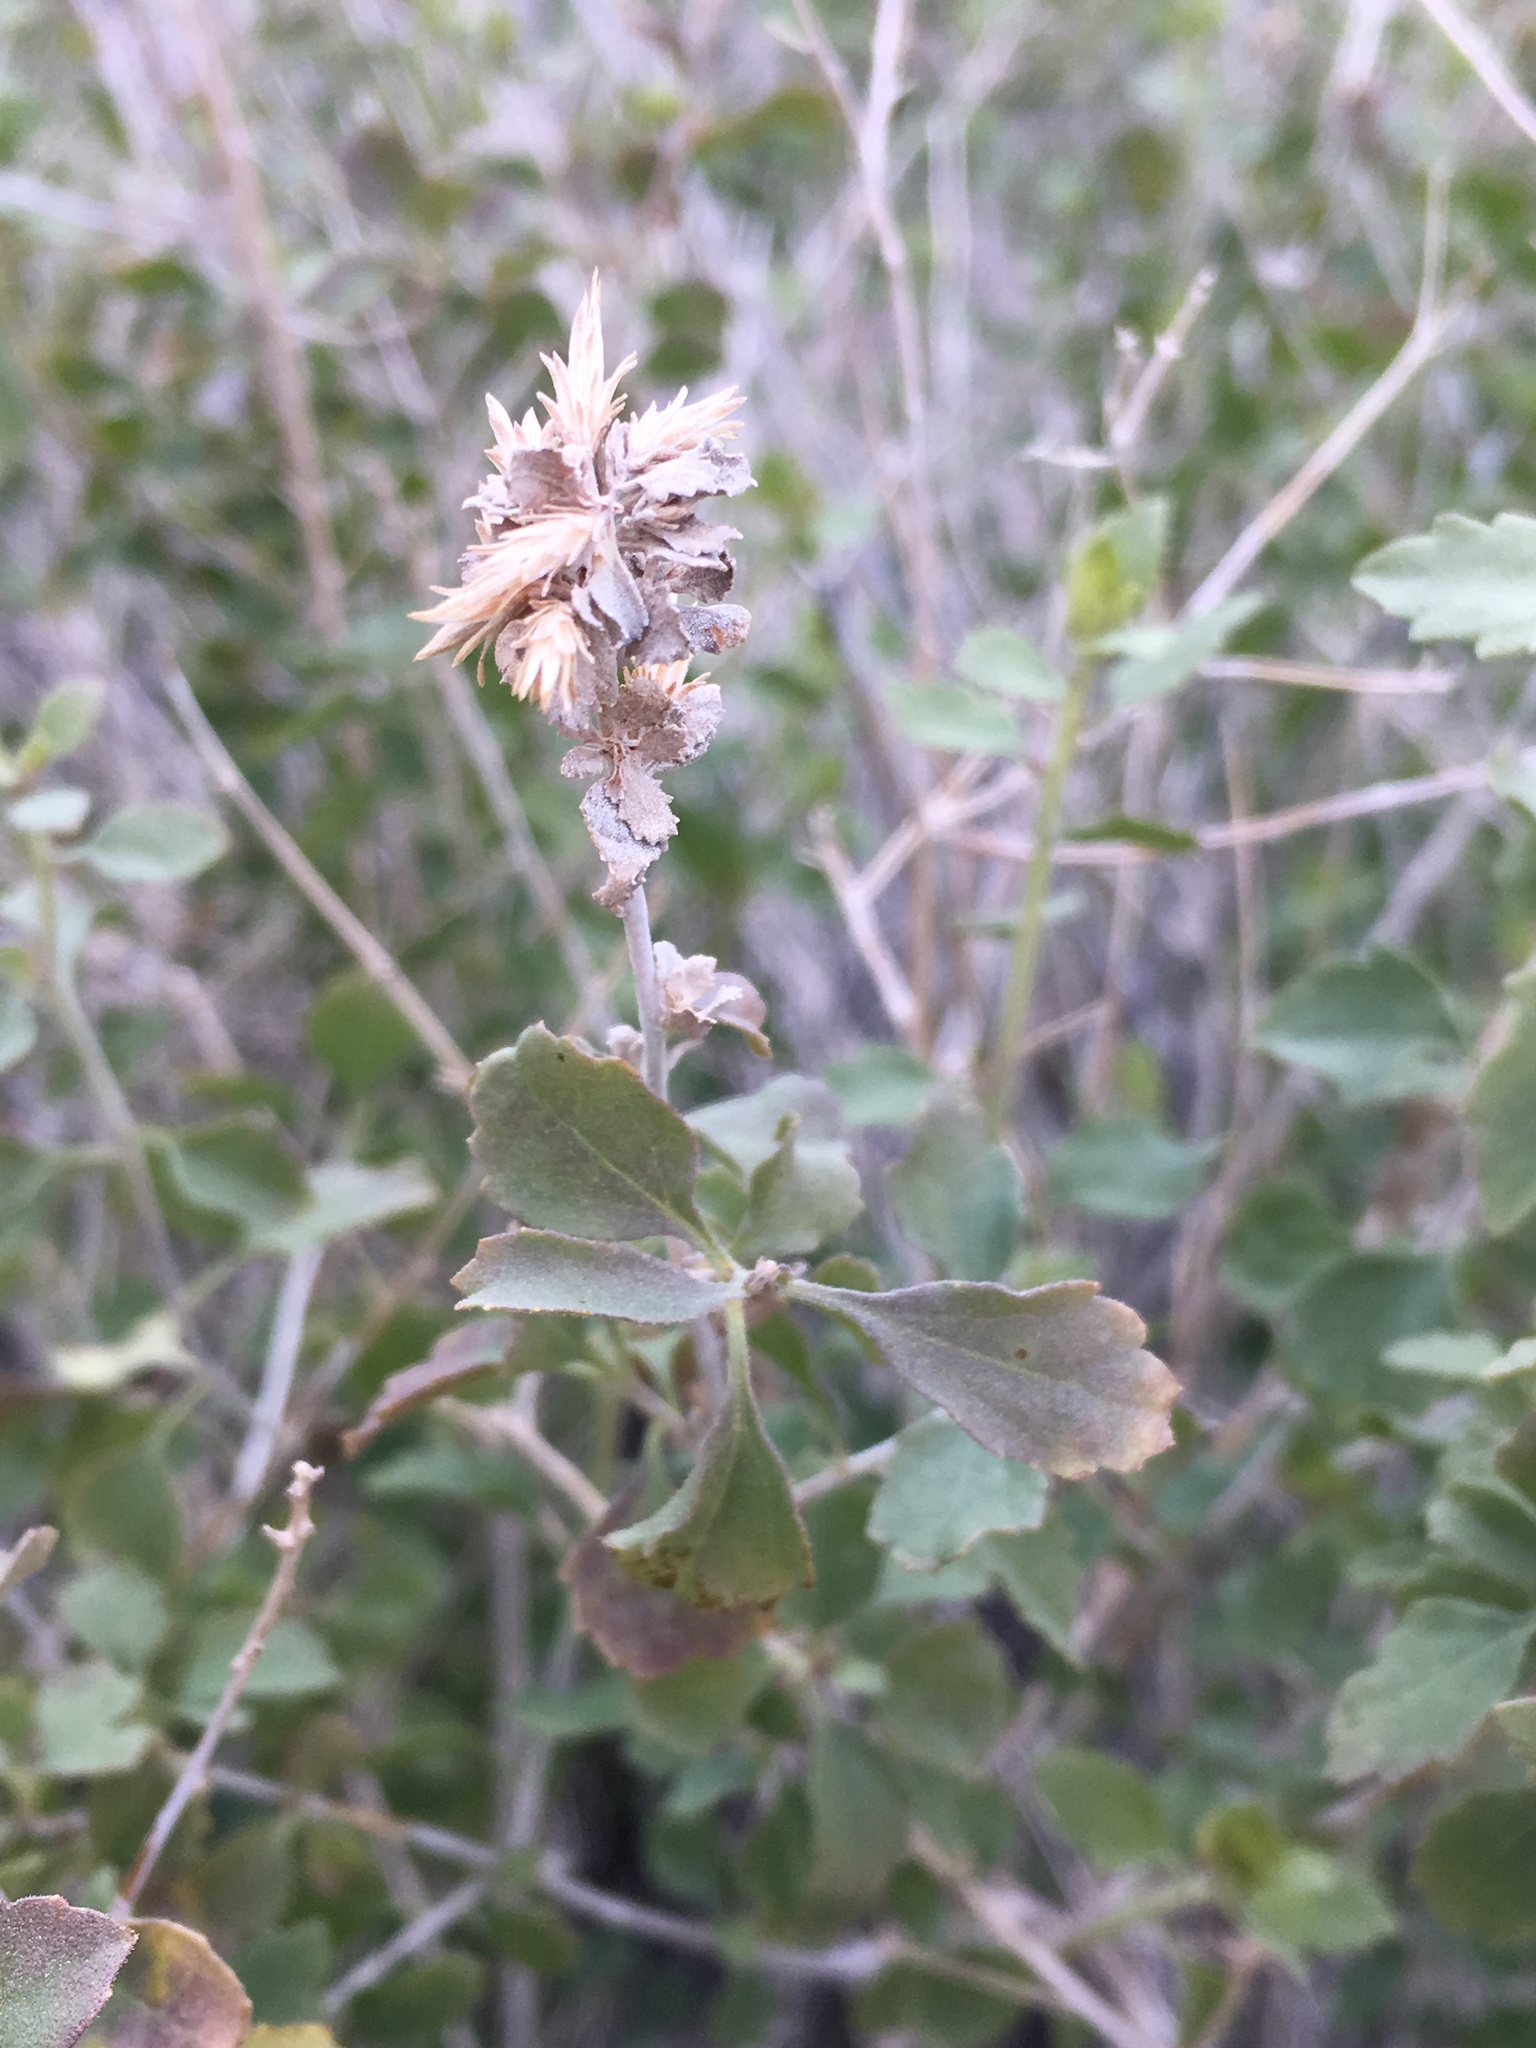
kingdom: Plantae
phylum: Tracheophyta
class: Magnoliopsida
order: Asterales
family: Asteraceae
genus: Brickellia
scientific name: Brickellia desertorum
